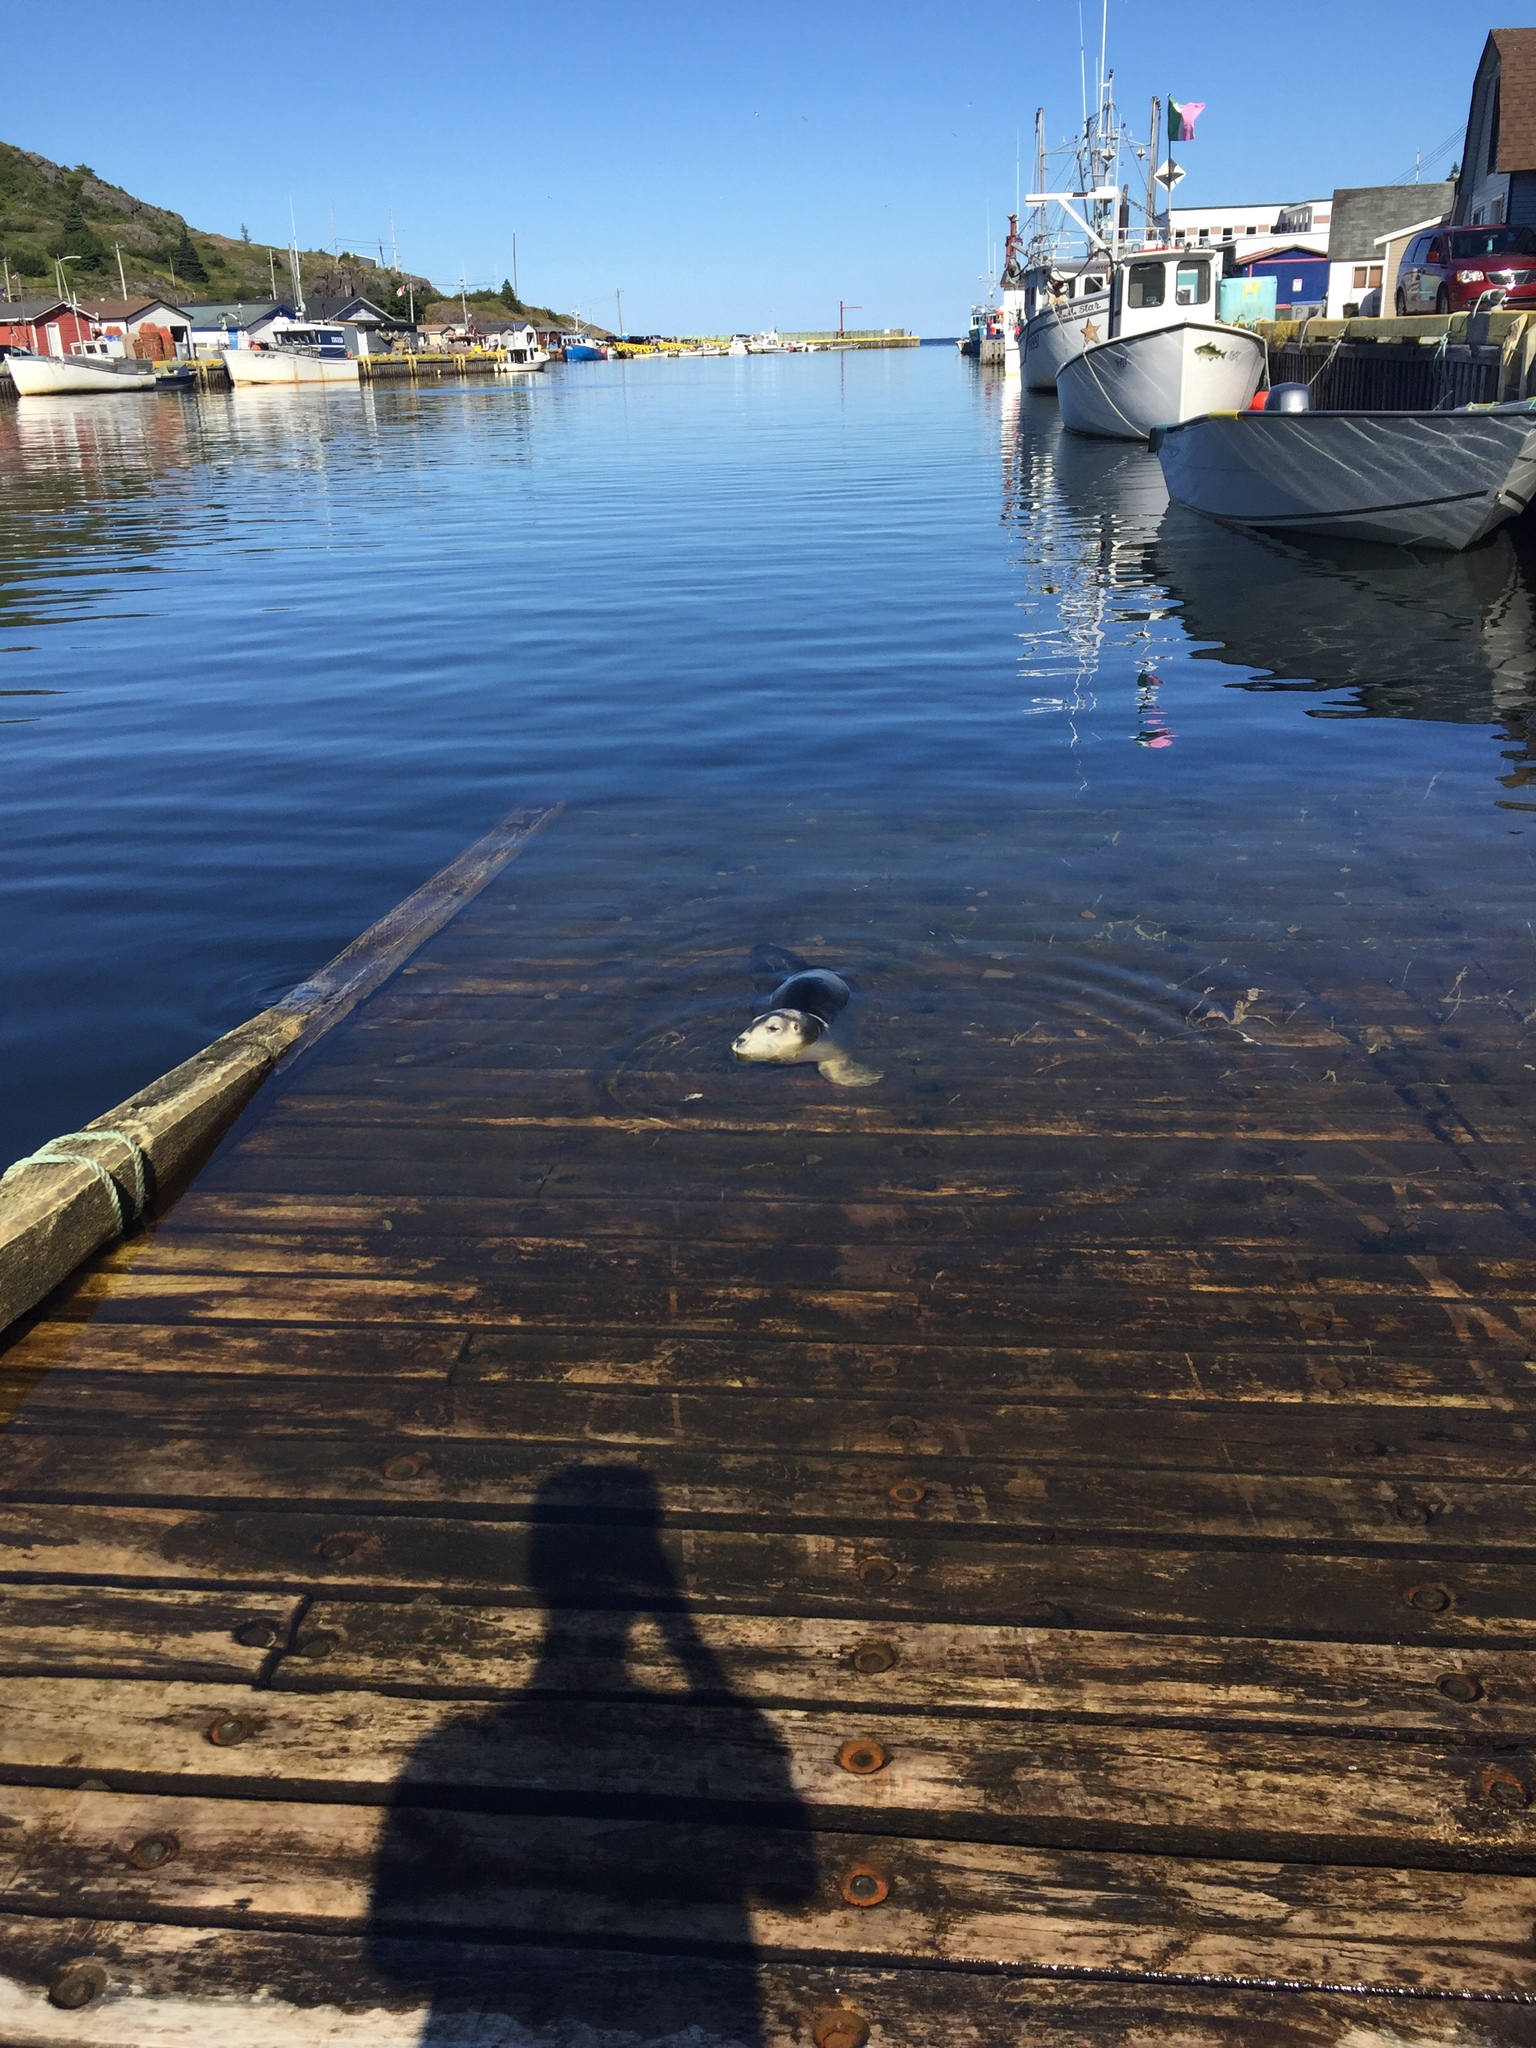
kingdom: Animalia
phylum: Chordata
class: Mammalia
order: Carnivora
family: Phocidae
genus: Erignathus
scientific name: Erignathus barbatus
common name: Bearded seal
